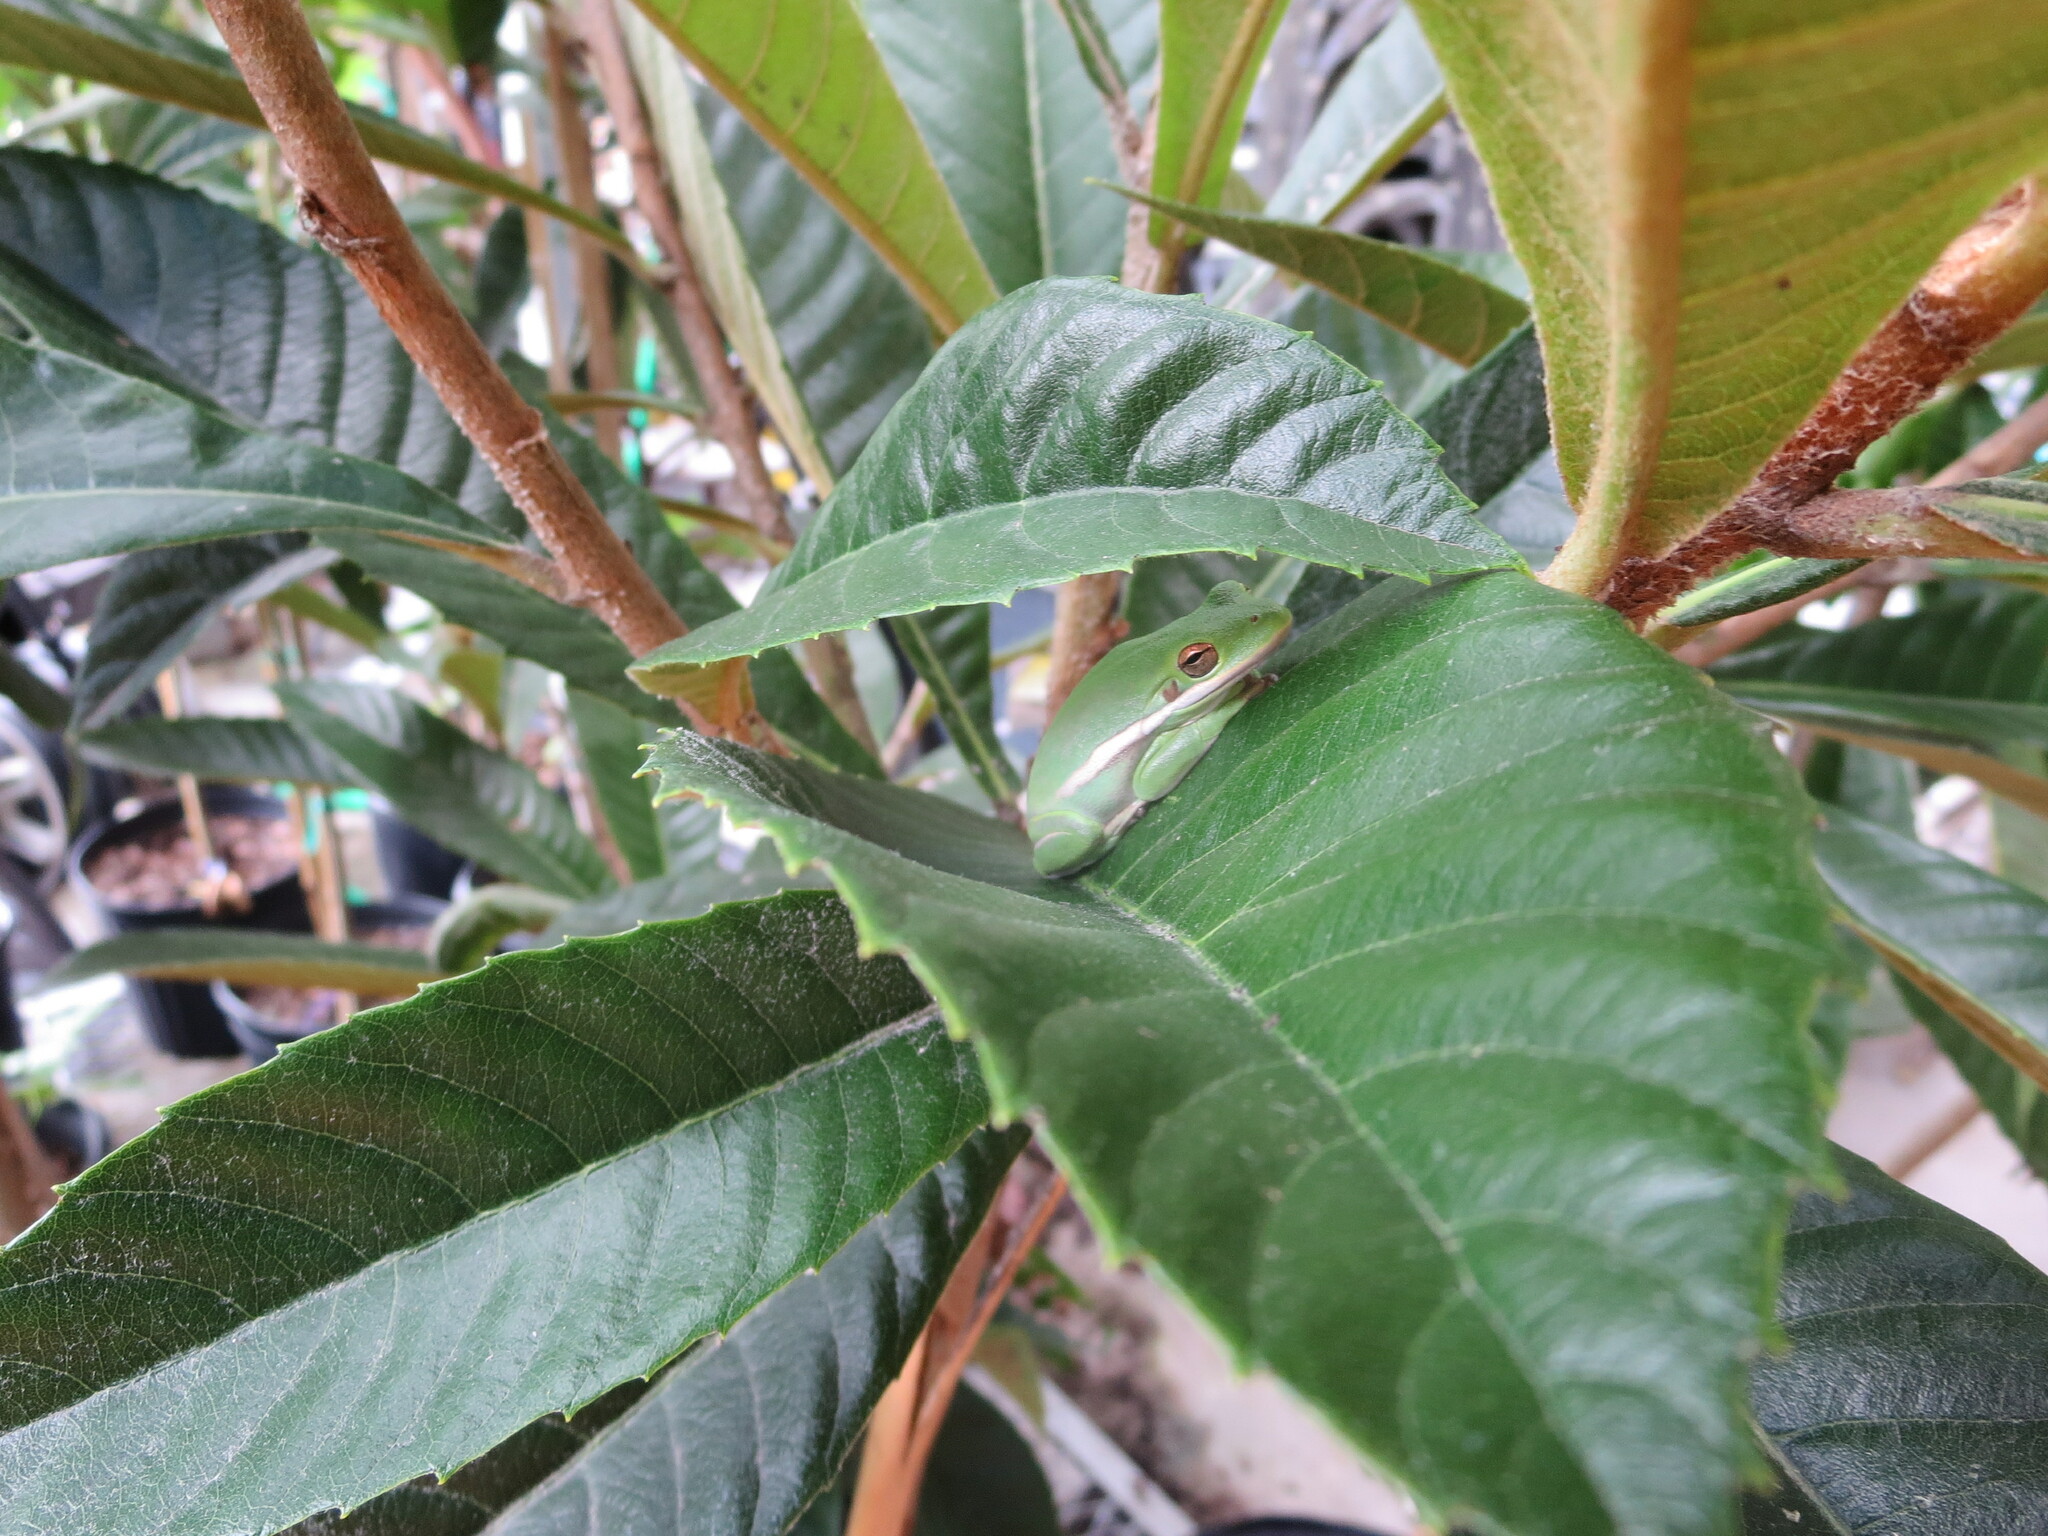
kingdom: Animalia
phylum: Chordata
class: Amphibia
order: Anura
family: Hylidae
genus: Dryophytes
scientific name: Dryophytes cinereus
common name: Green treefrog
